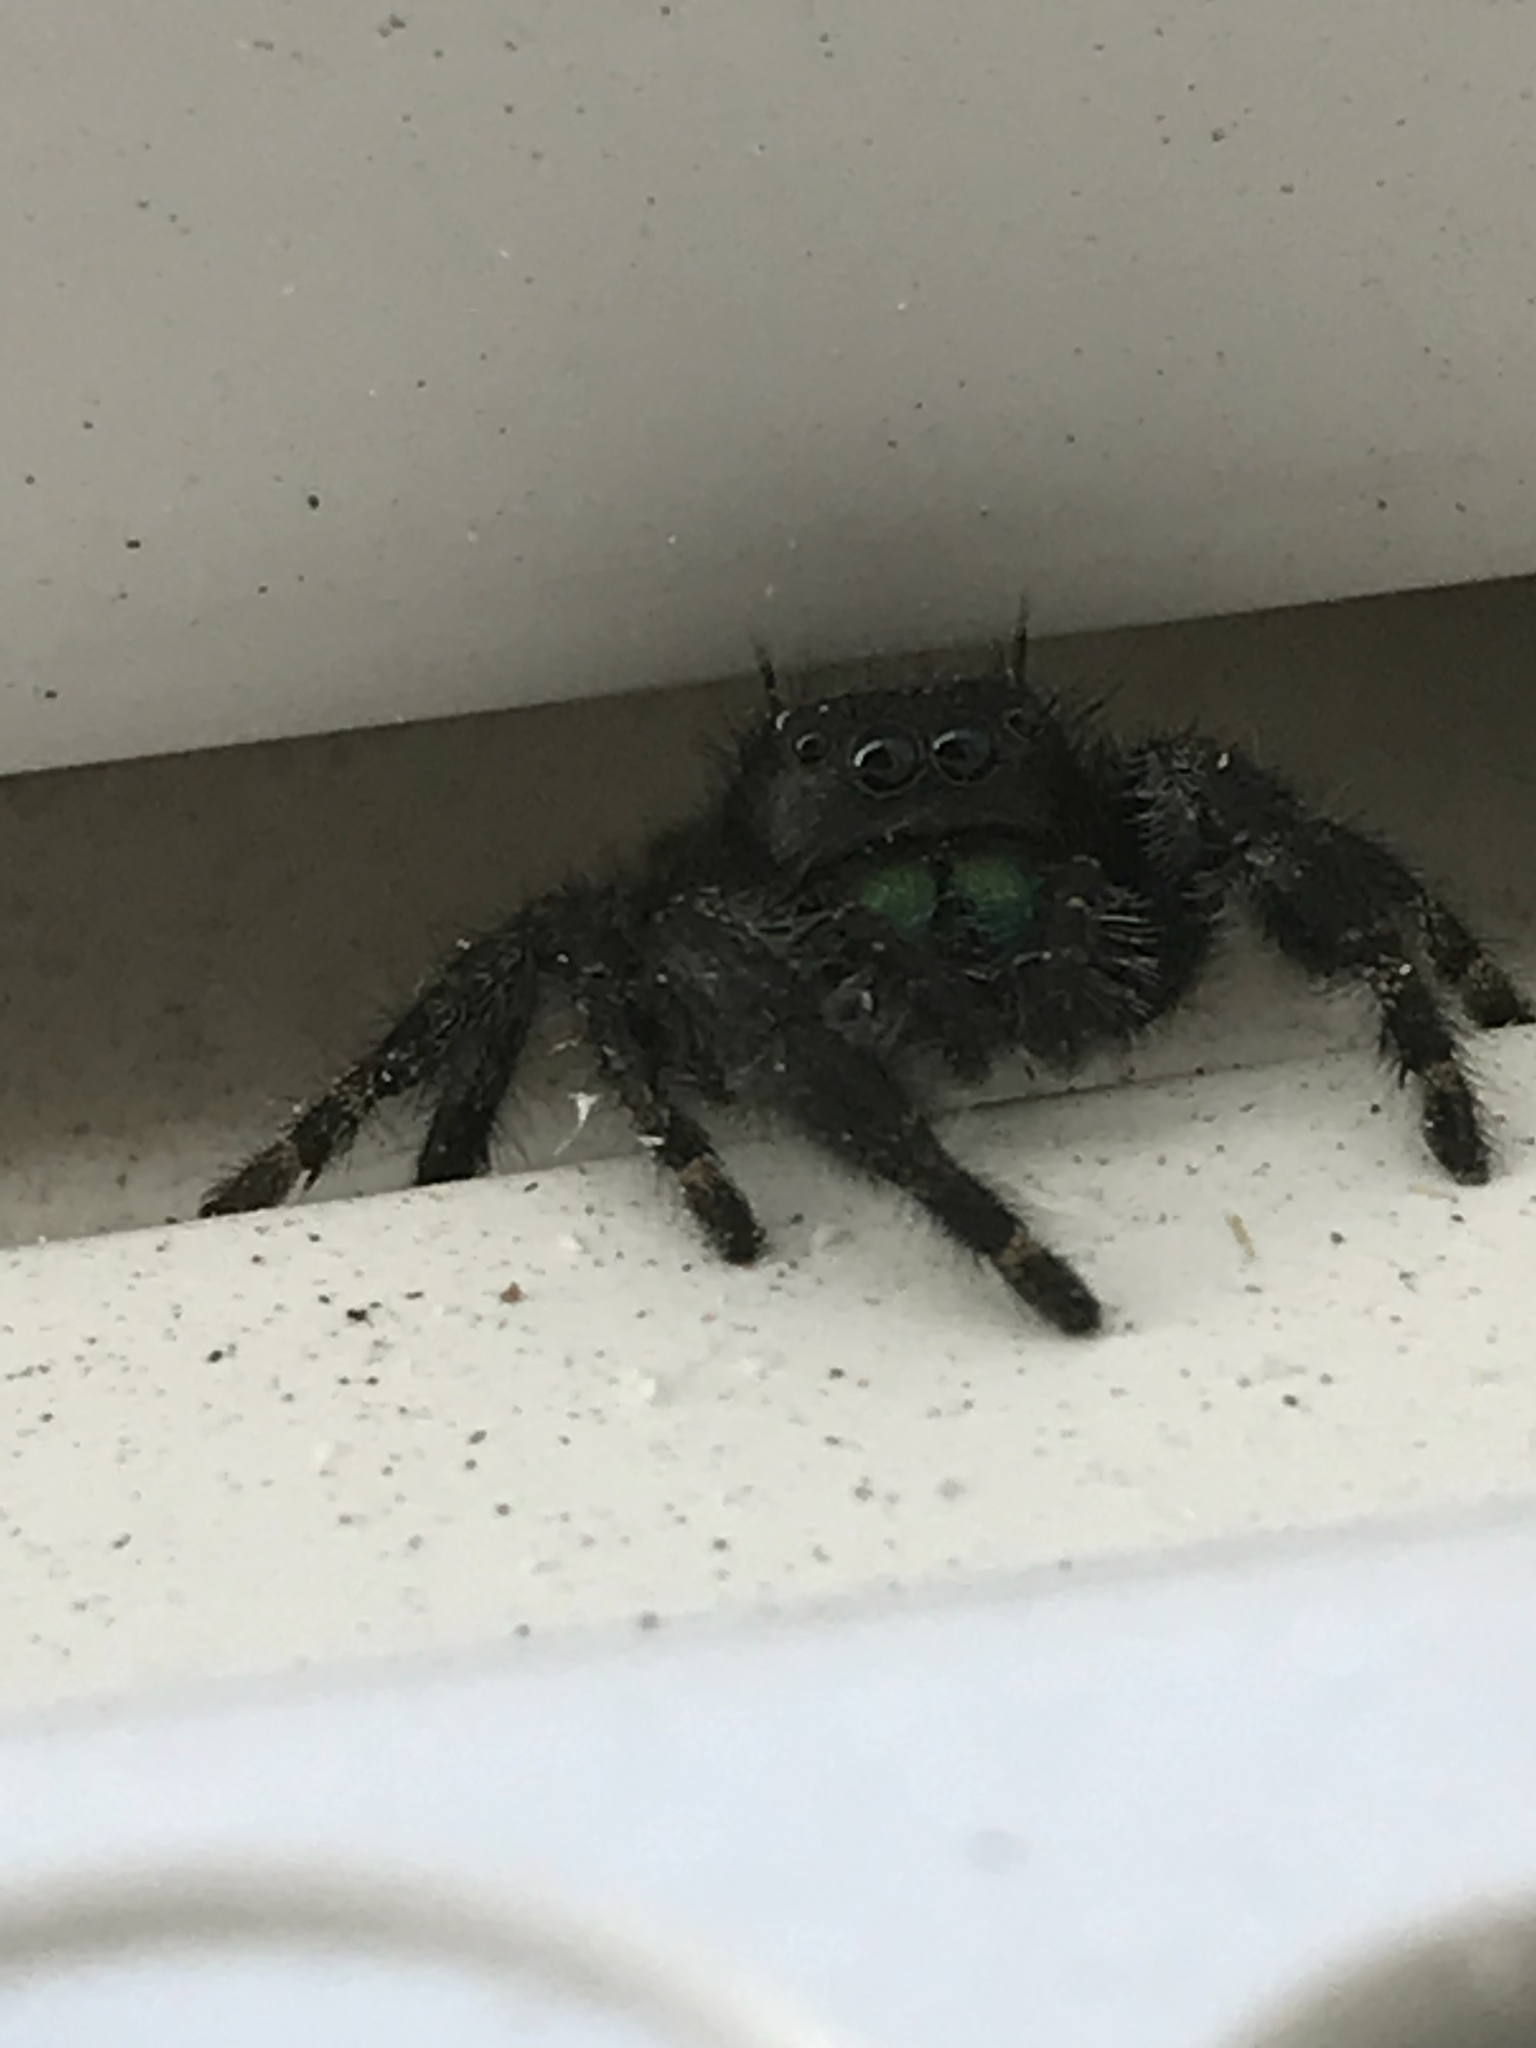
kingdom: Animalia
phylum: Arthropoda
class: Arachnida
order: Araneae
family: Salticidae
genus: Phidippus
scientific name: Phidippus audax
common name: Bold jumper
